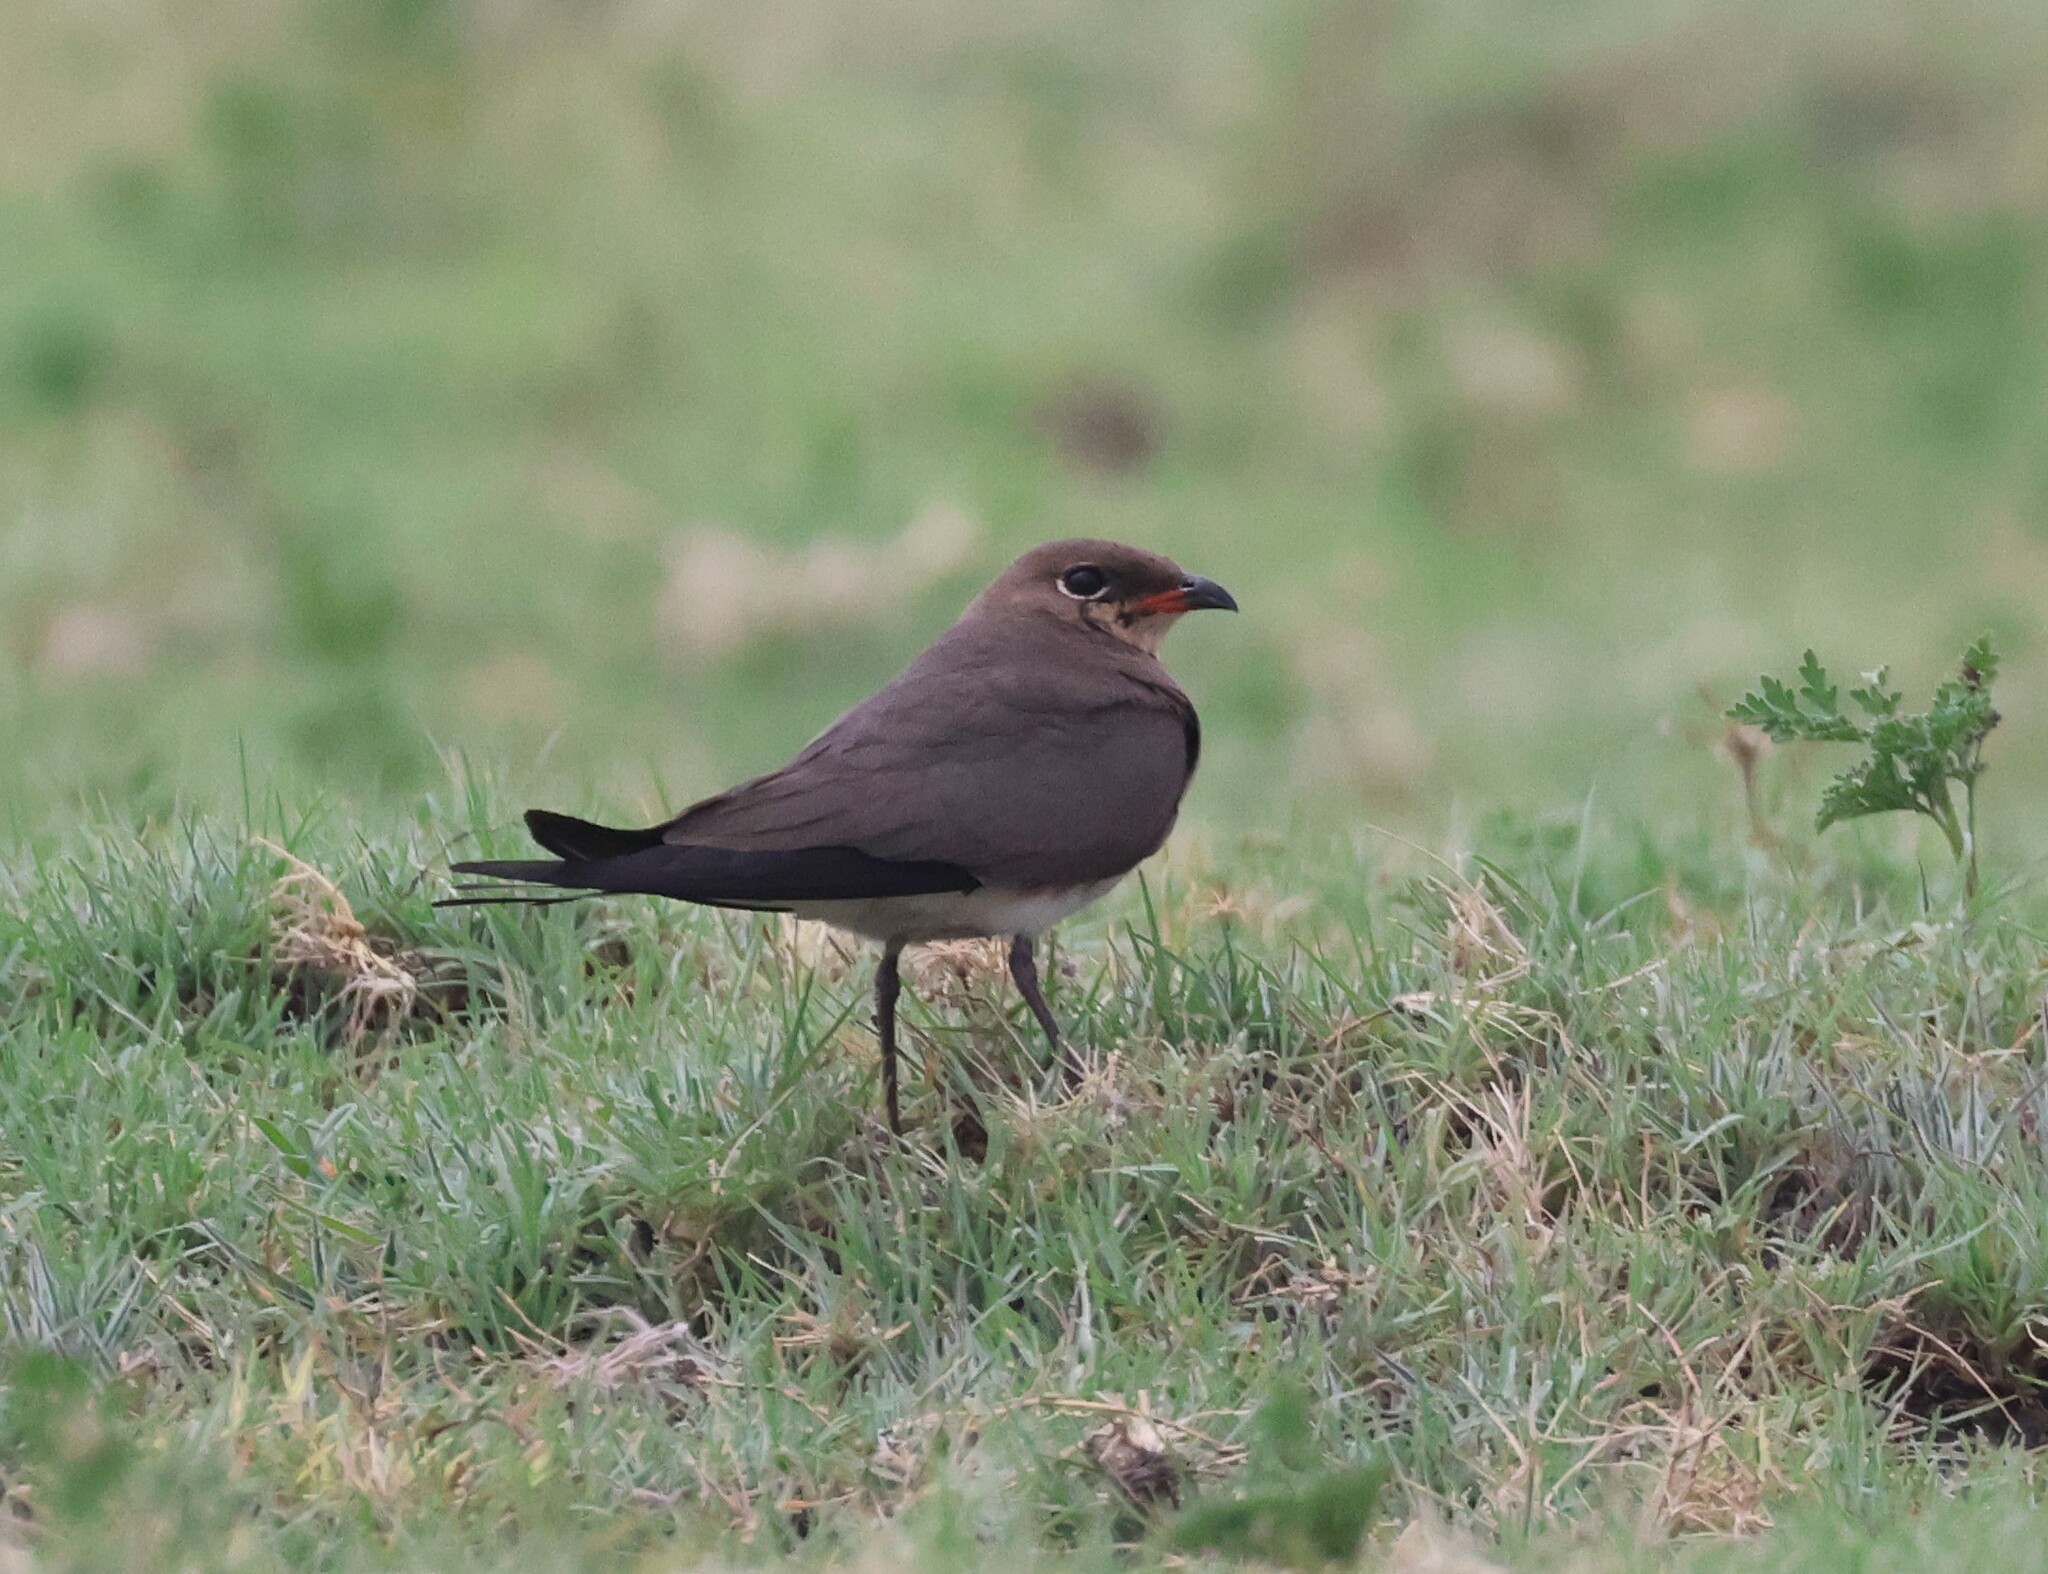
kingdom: Animalia
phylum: Chordata
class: Aves
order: Charadriiformes
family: Glareolidae
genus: Glareola
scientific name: Glareola pratincola
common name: Collared pratincole
